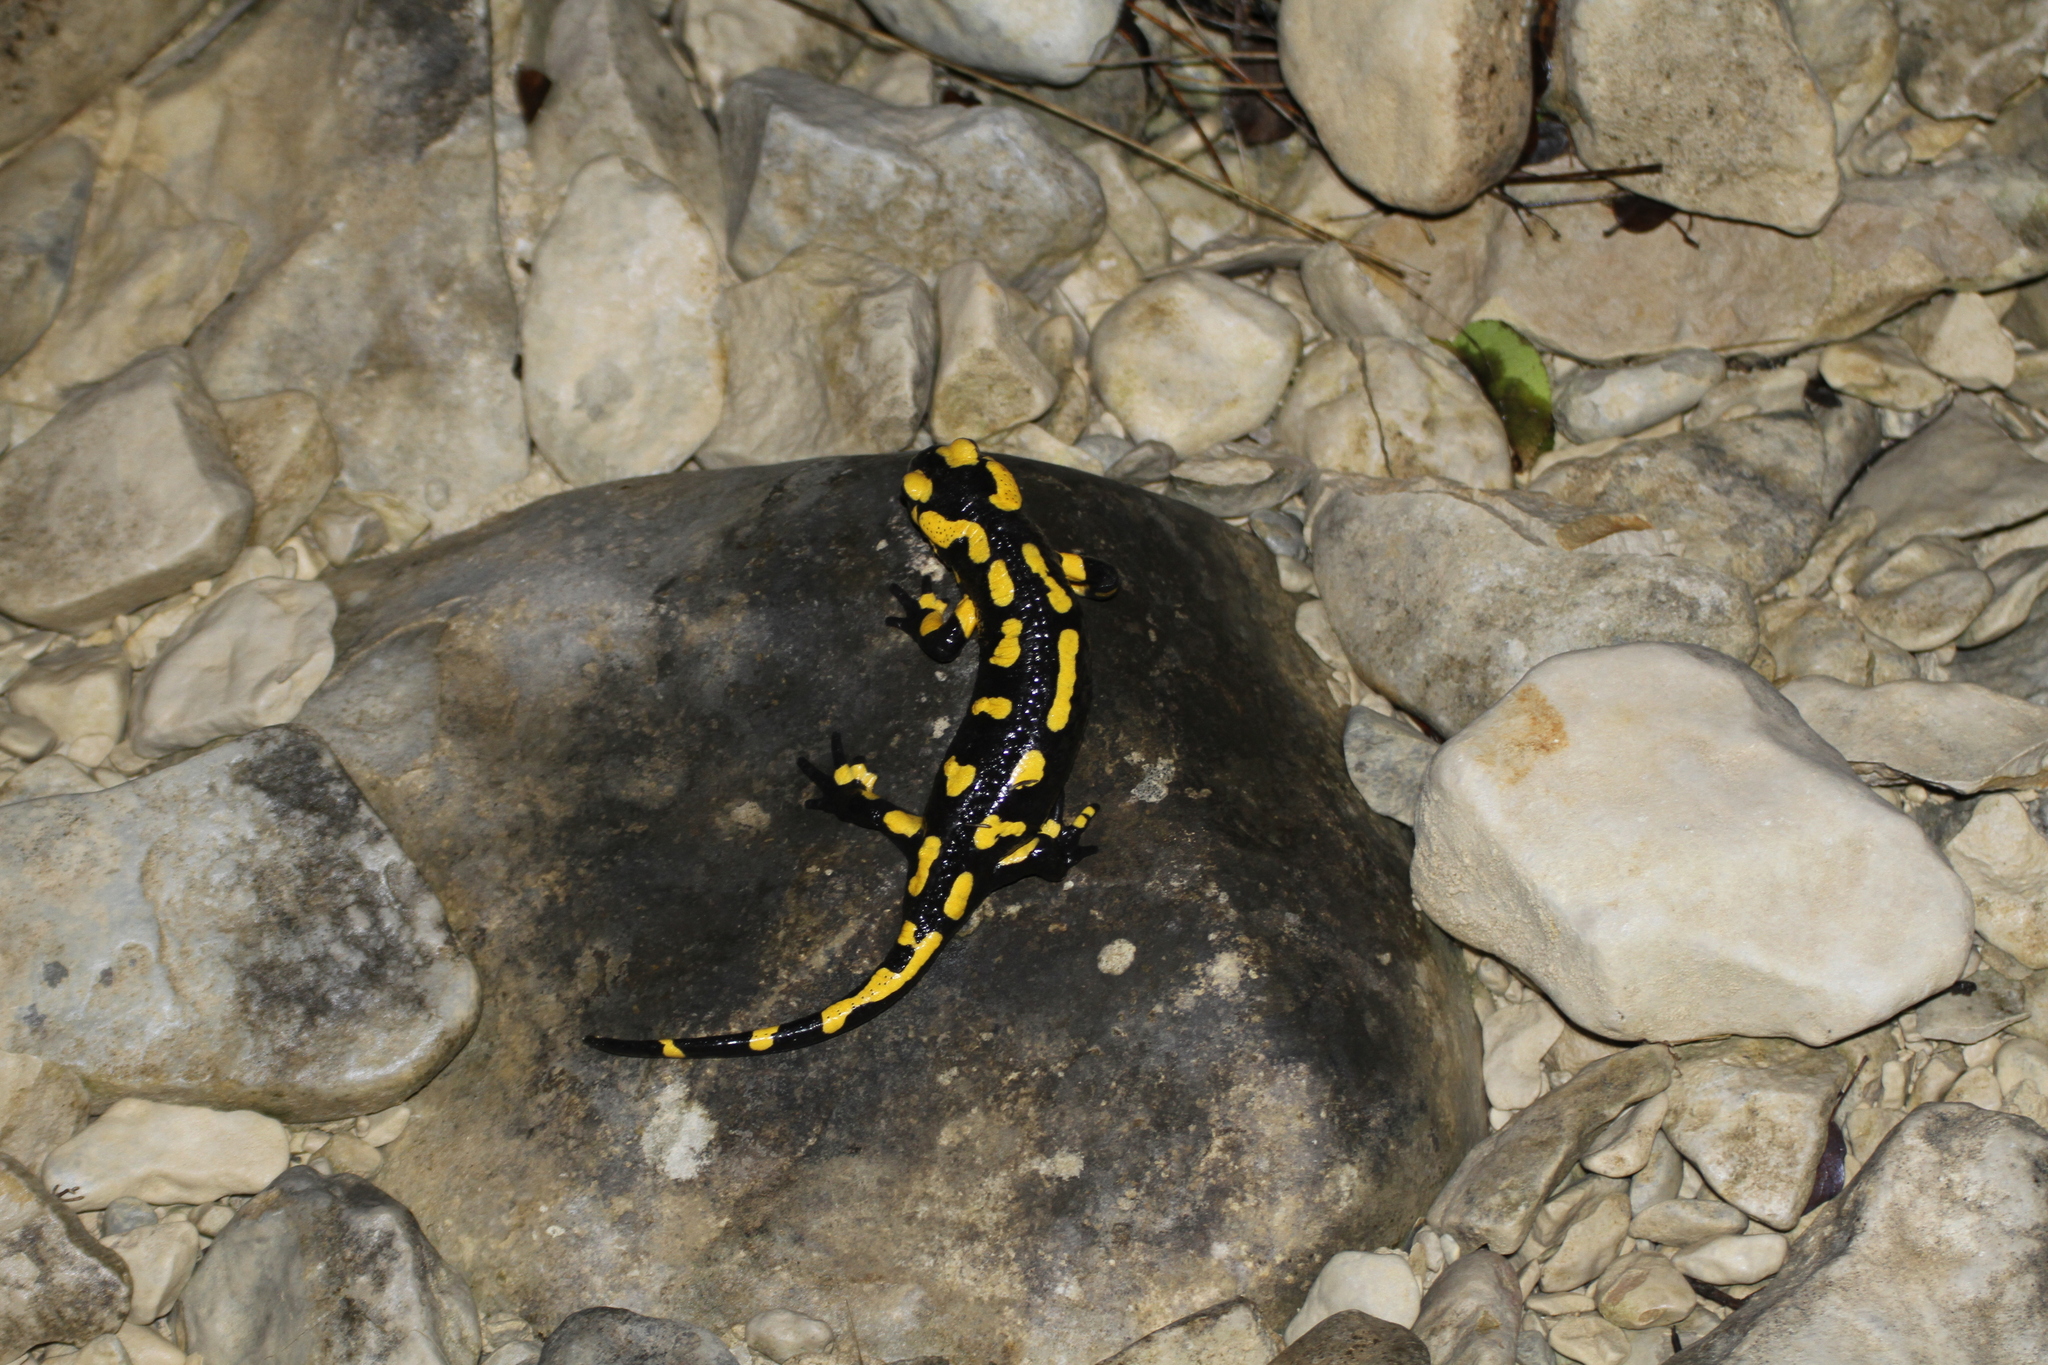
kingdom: Animalia
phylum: Chordata
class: Amphibia
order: Caudata
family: Salamandridae
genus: Salamandra
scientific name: Salamandra salamandra
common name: Fire salamander
